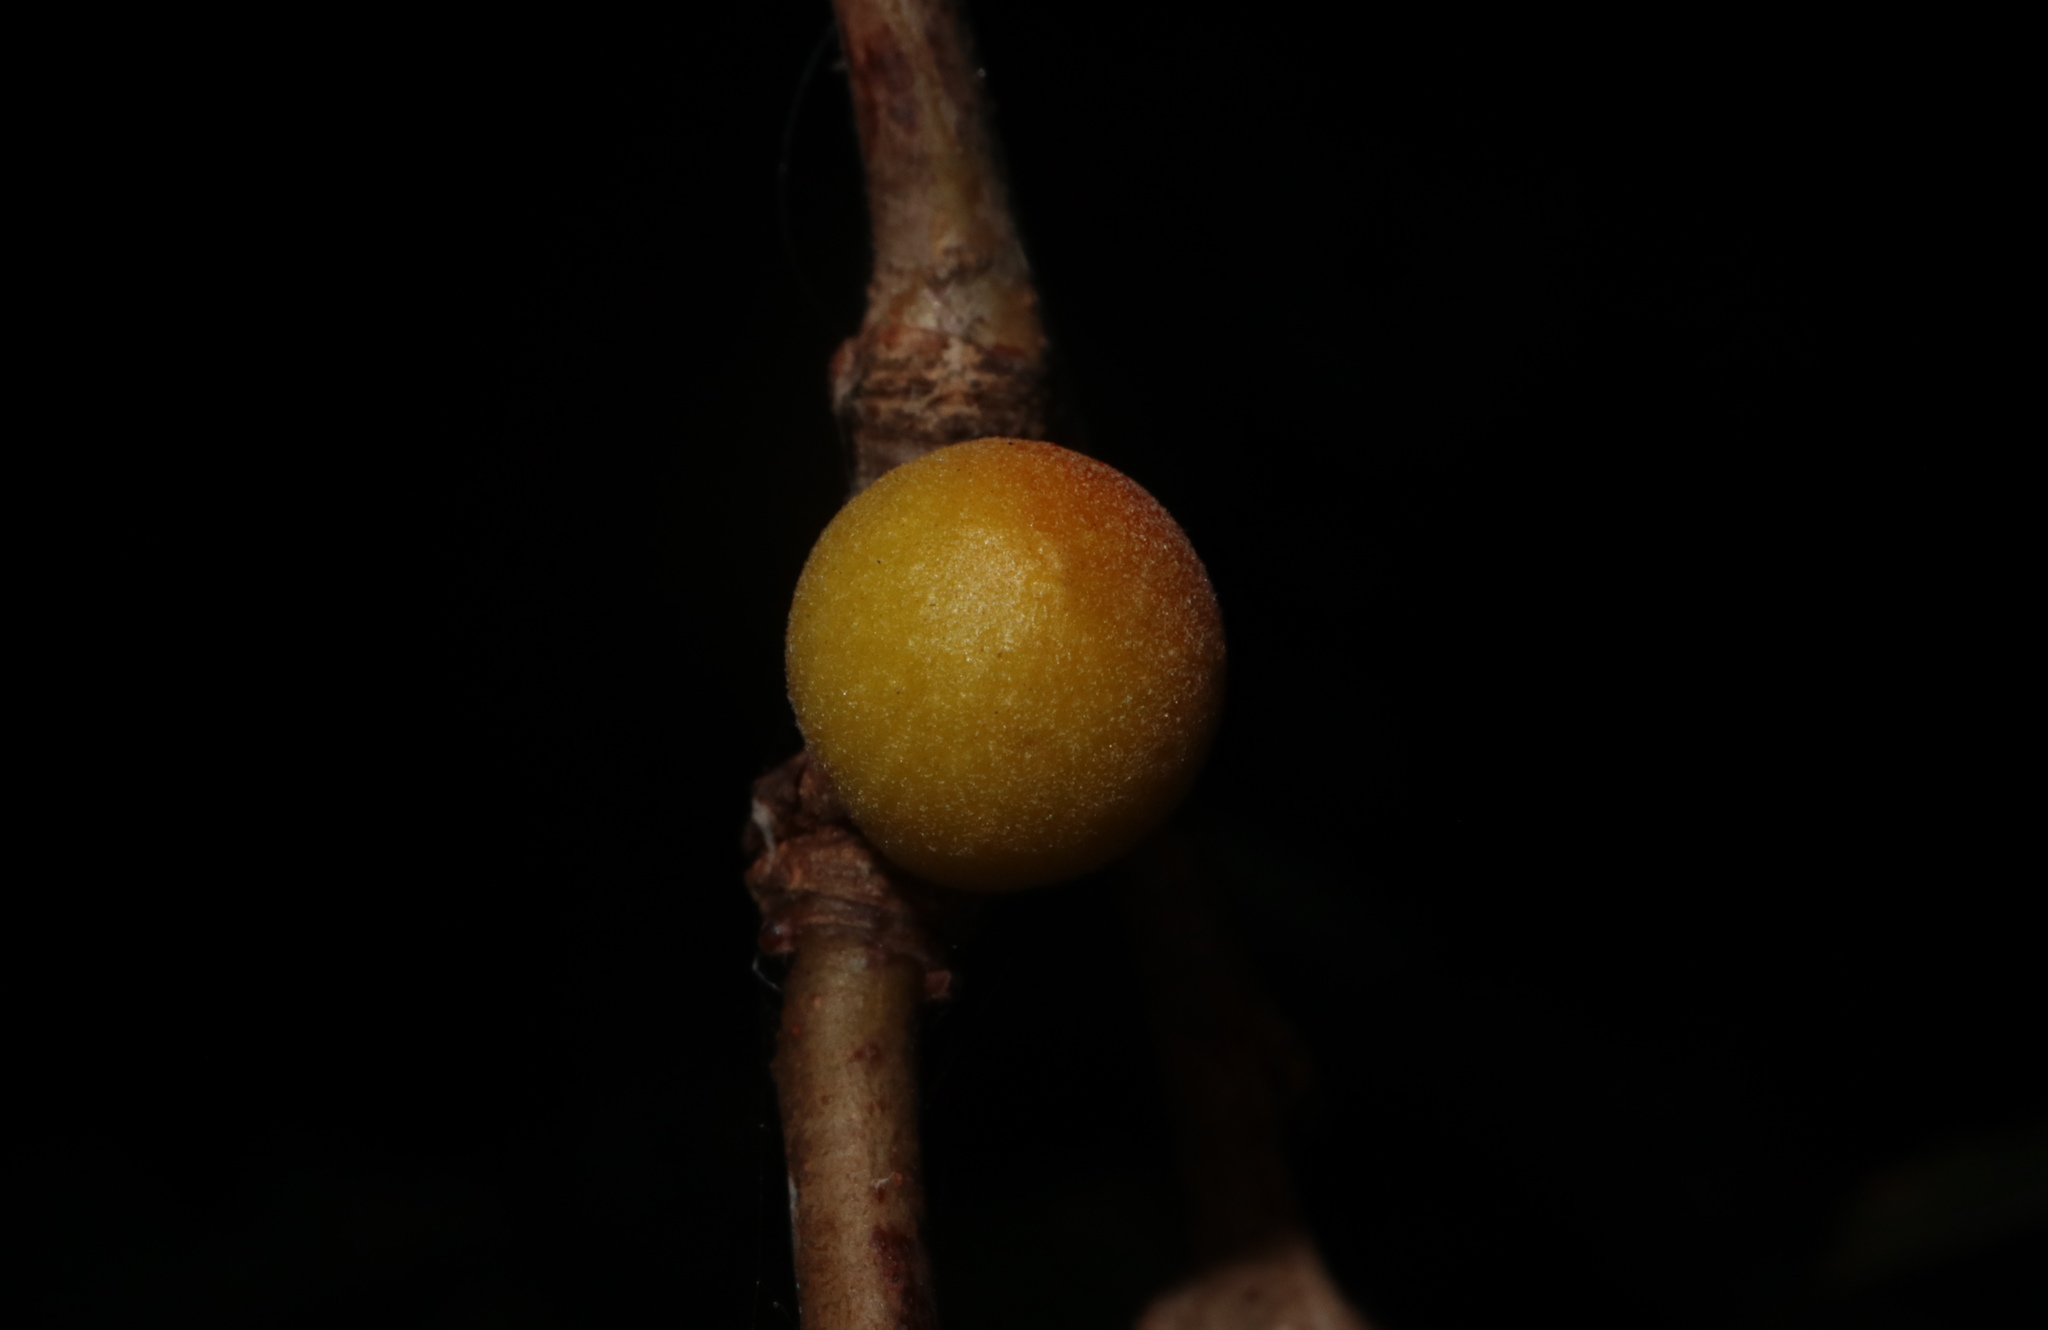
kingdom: Animalia
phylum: Arthropoda
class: Insecta
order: Hymenoptera
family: Cynipidae
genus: Disholcaspis
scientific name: Disholcaspis quercusglobulus
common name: Round bullet gall wasp
